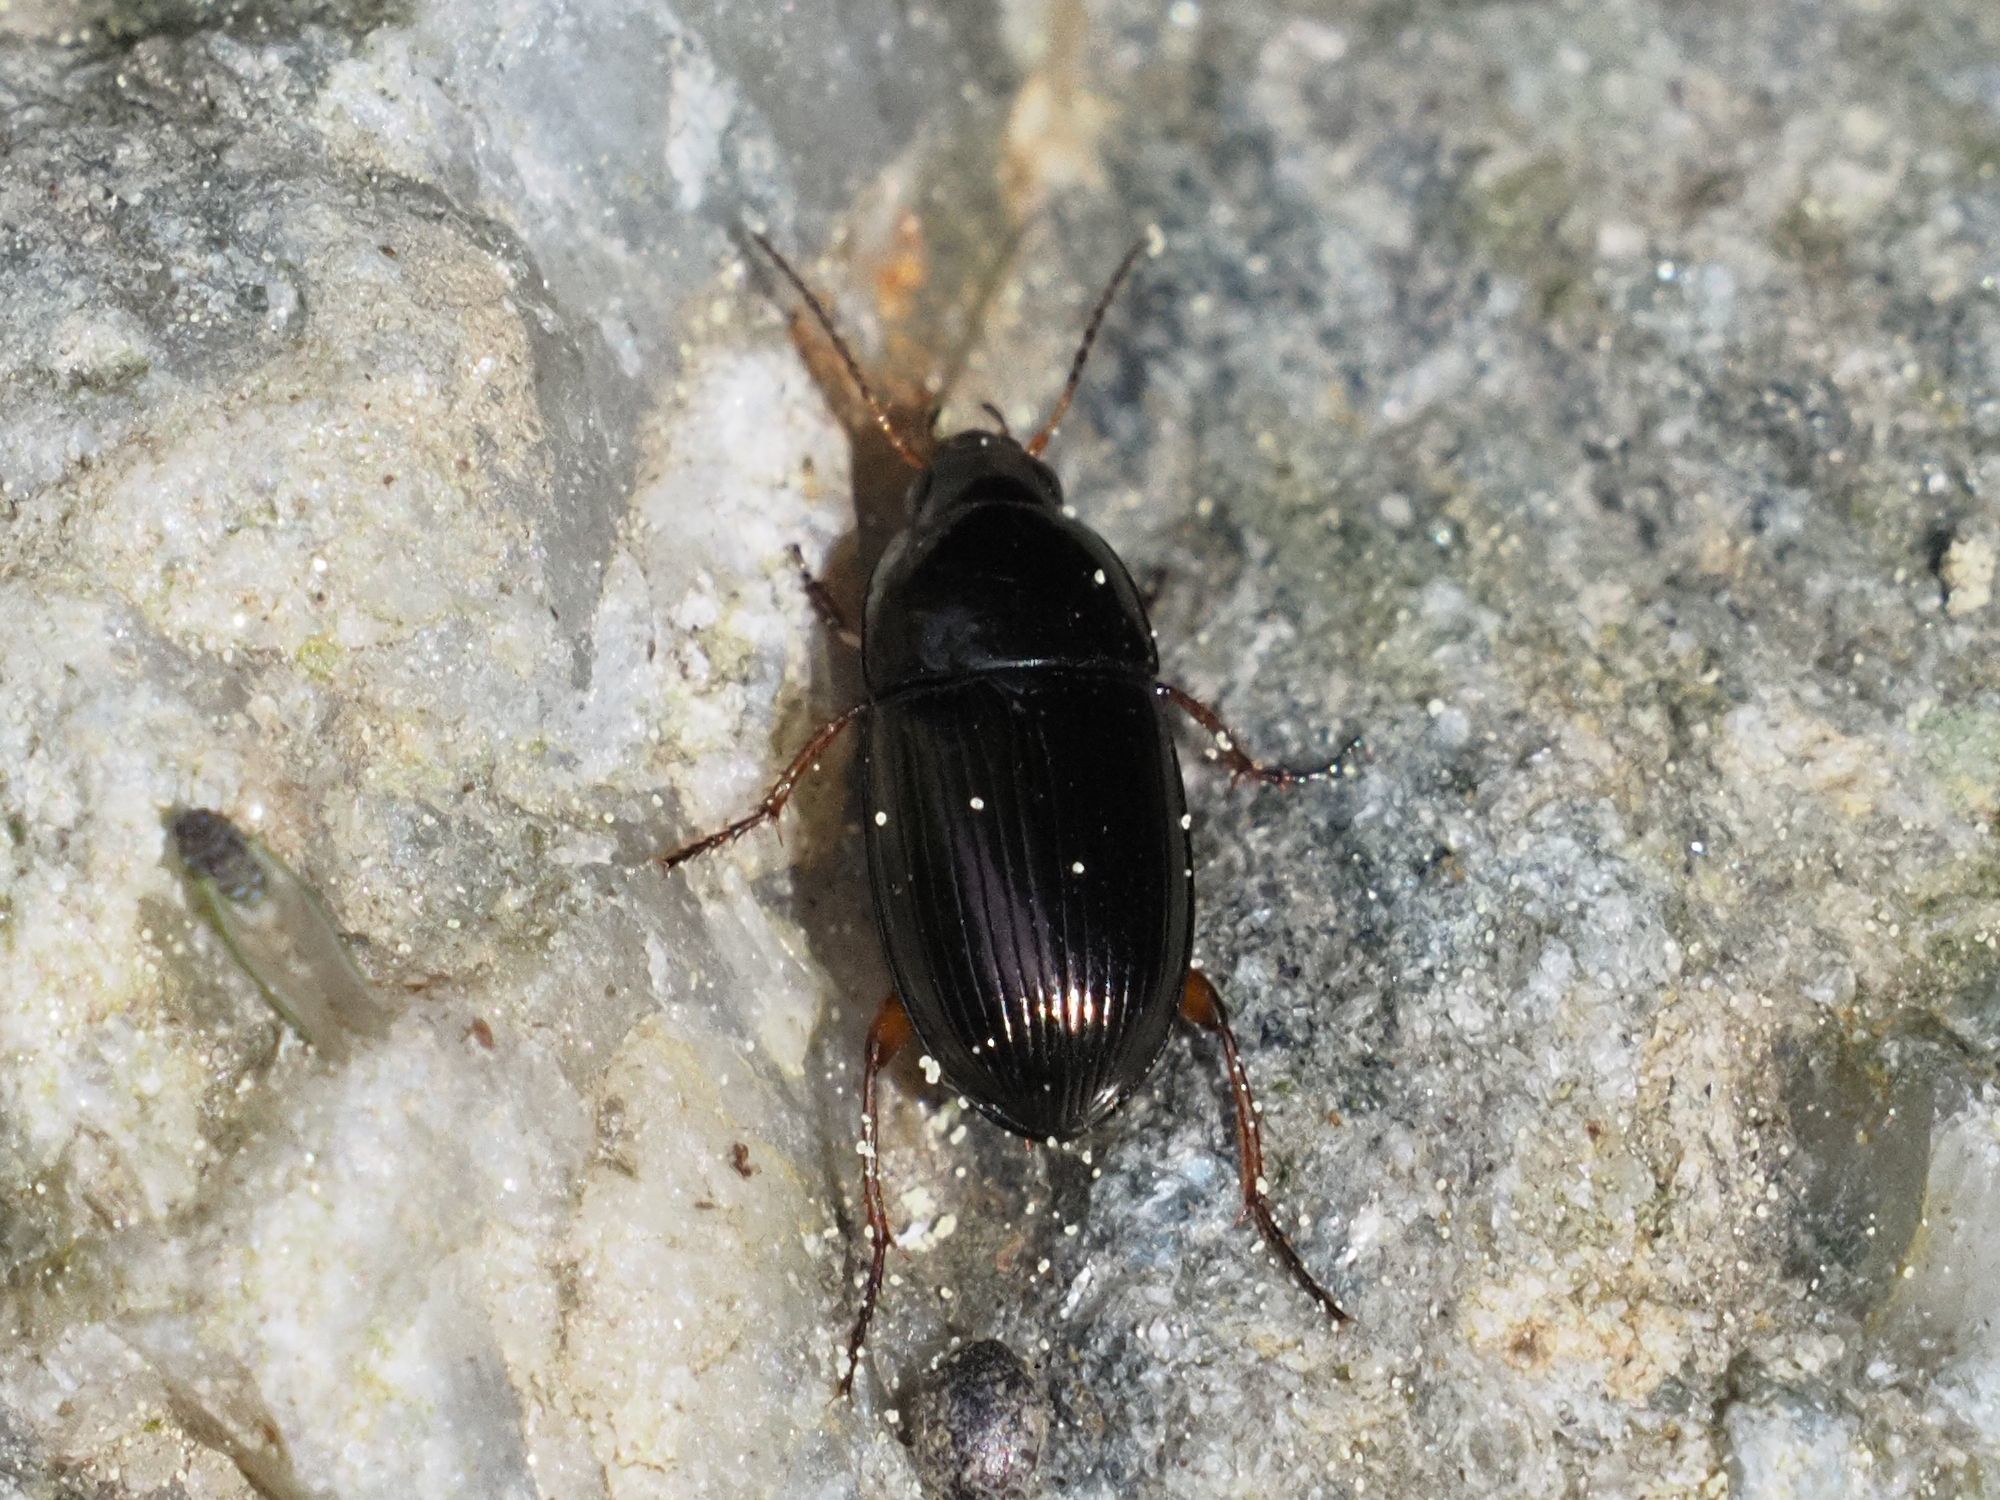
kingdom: Animalia
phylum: Arthropoda
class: Insecta
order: Coleoptera
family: Carabidae
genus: Amara
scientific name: Amara familiaris
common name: Familiar harp round beetle
